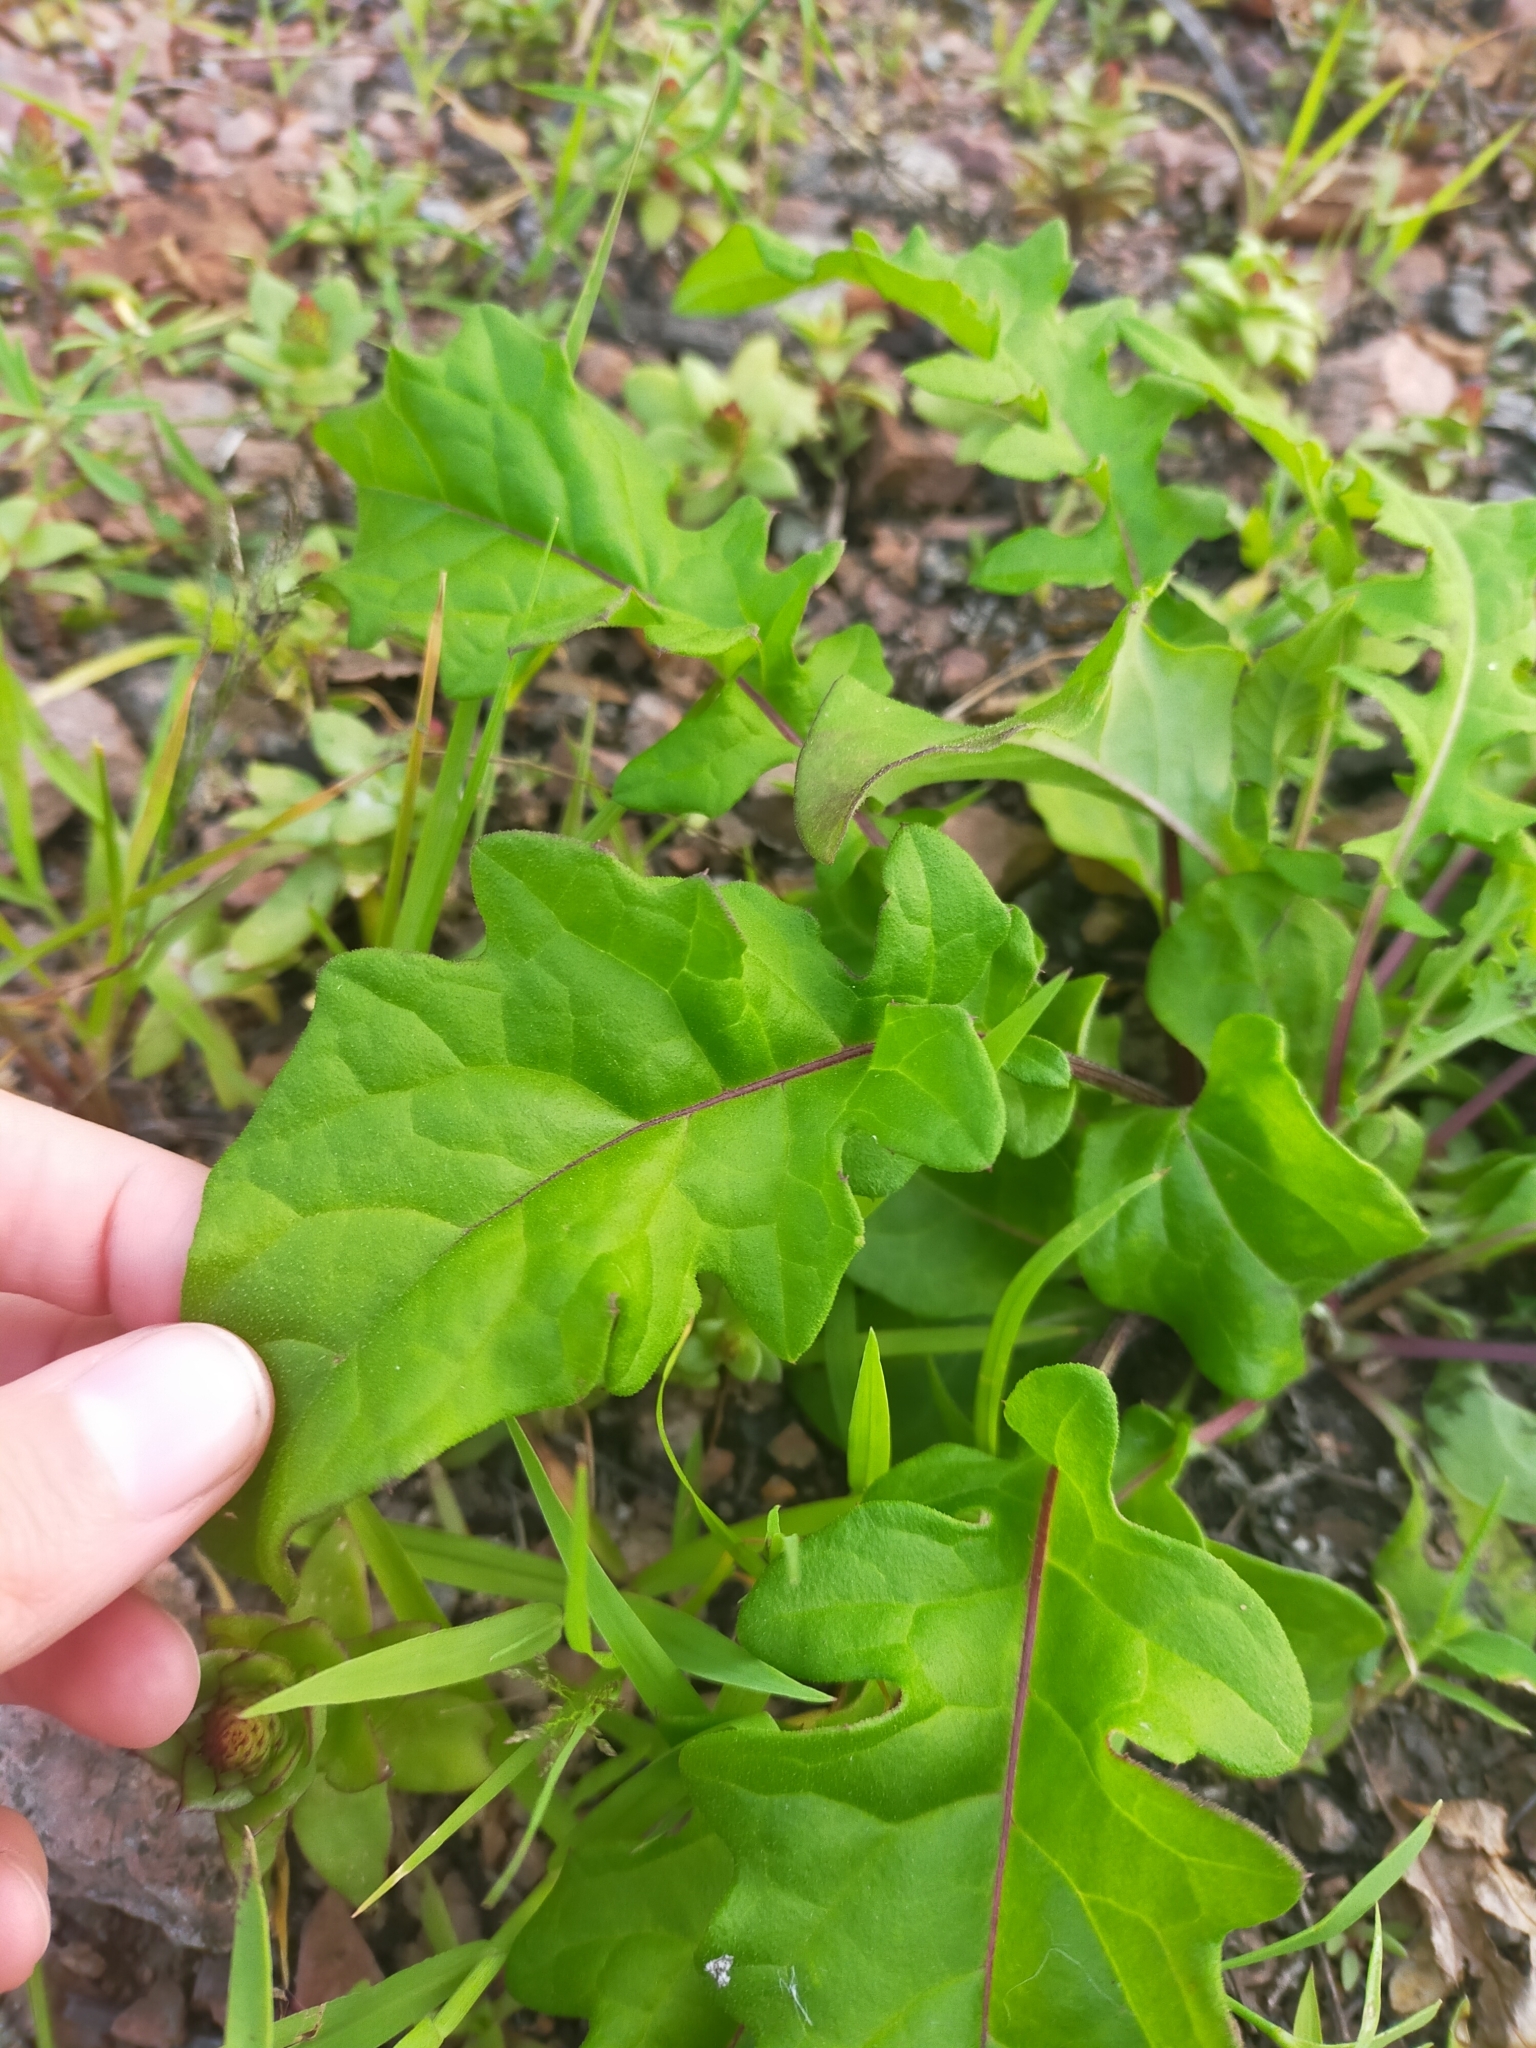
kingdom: Plantae
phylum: Tracheophyta
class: Magnoliopsida
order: Asterales
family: Asteraceae
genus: Saussurea
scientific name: Saussurea pulchella
